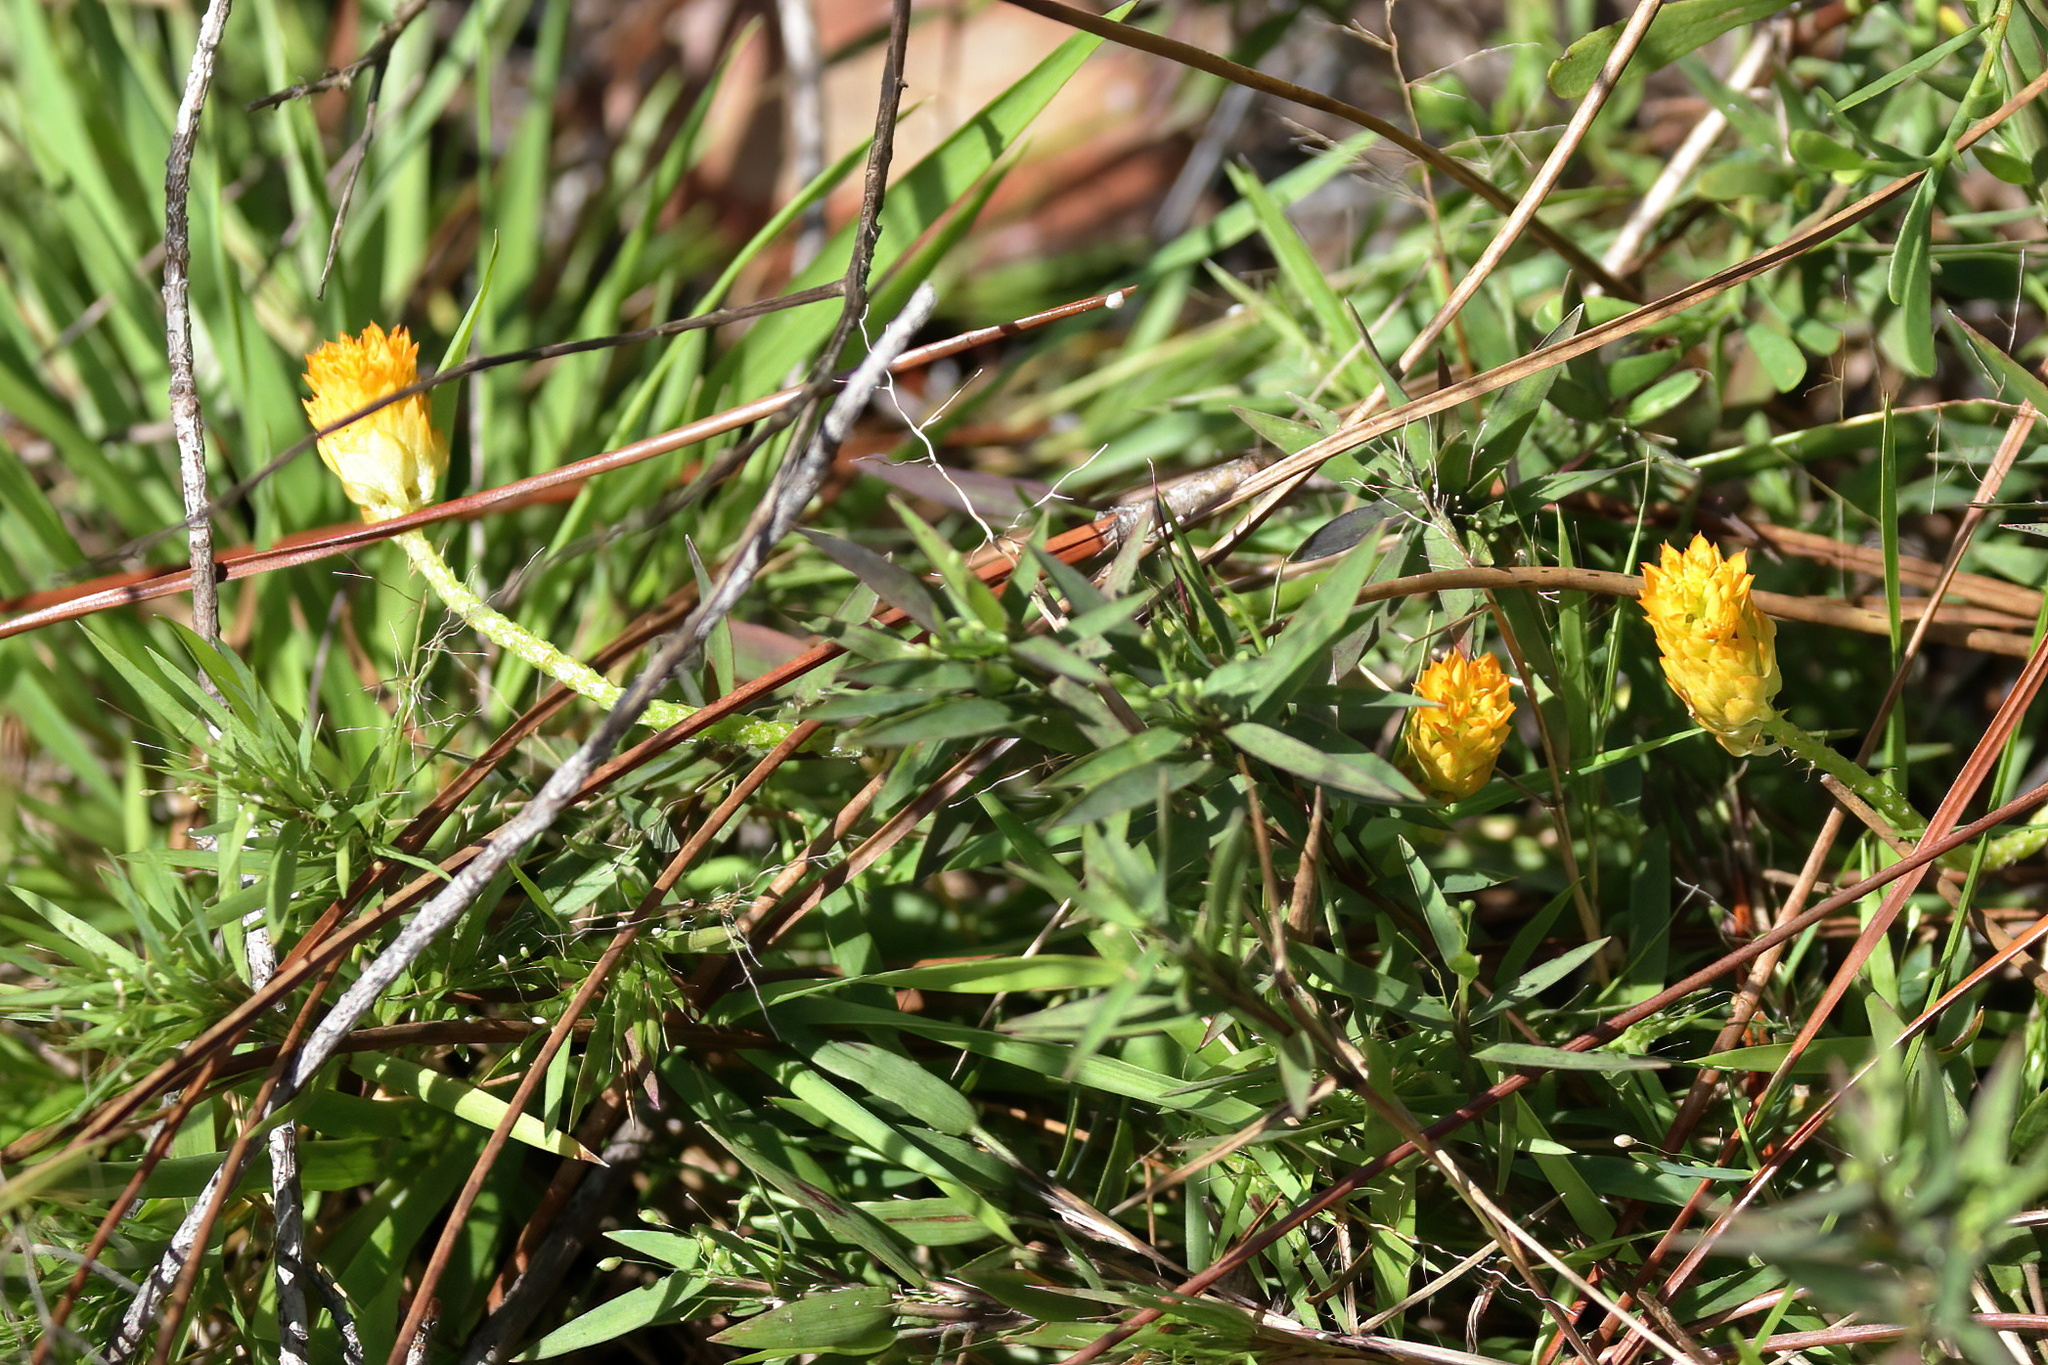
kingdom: Plantae
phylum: Tracheophyta
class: Magnoliopsida
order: Fabales
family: Polygalaceae
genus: Polygala
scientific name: Polygala lutea
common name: Orange milkwort
